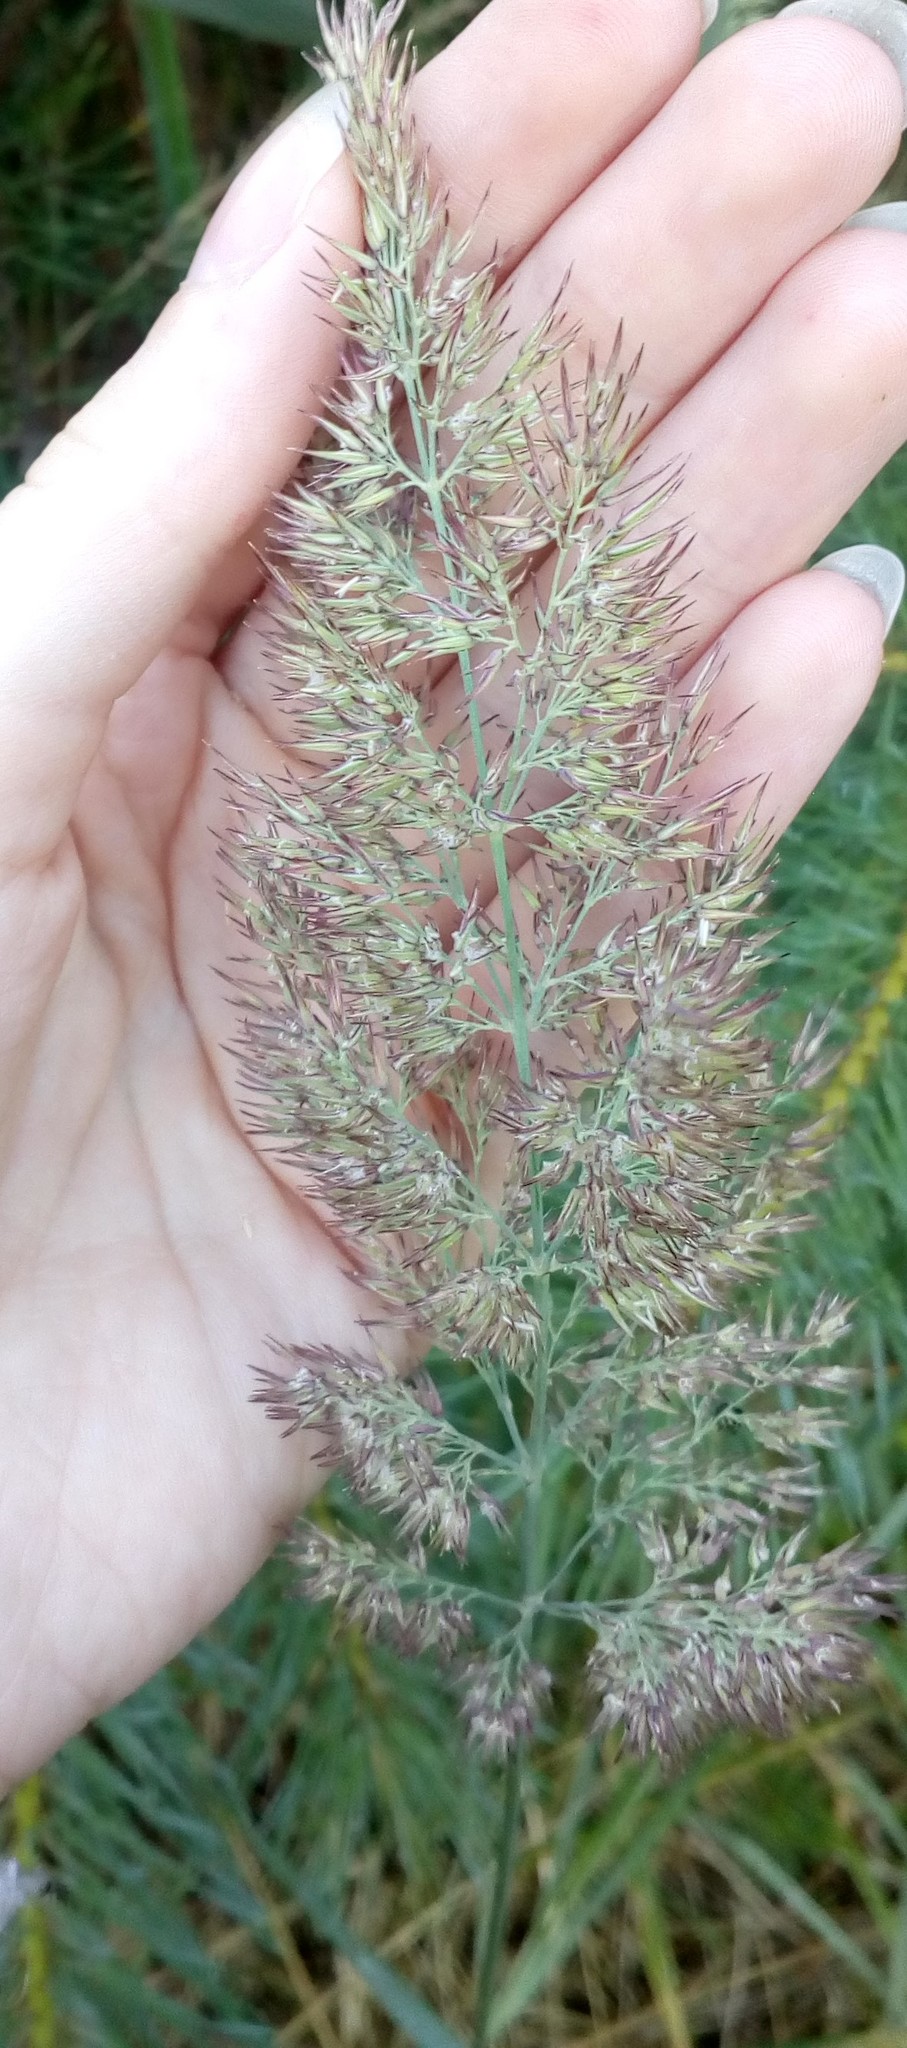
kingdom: Plantae
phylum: Tracheophyta
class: Liliopsida
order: Poales
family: Poaceae
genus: Calamagrostis
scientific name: Calamagrostis epigejos
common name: Wood small-reed
